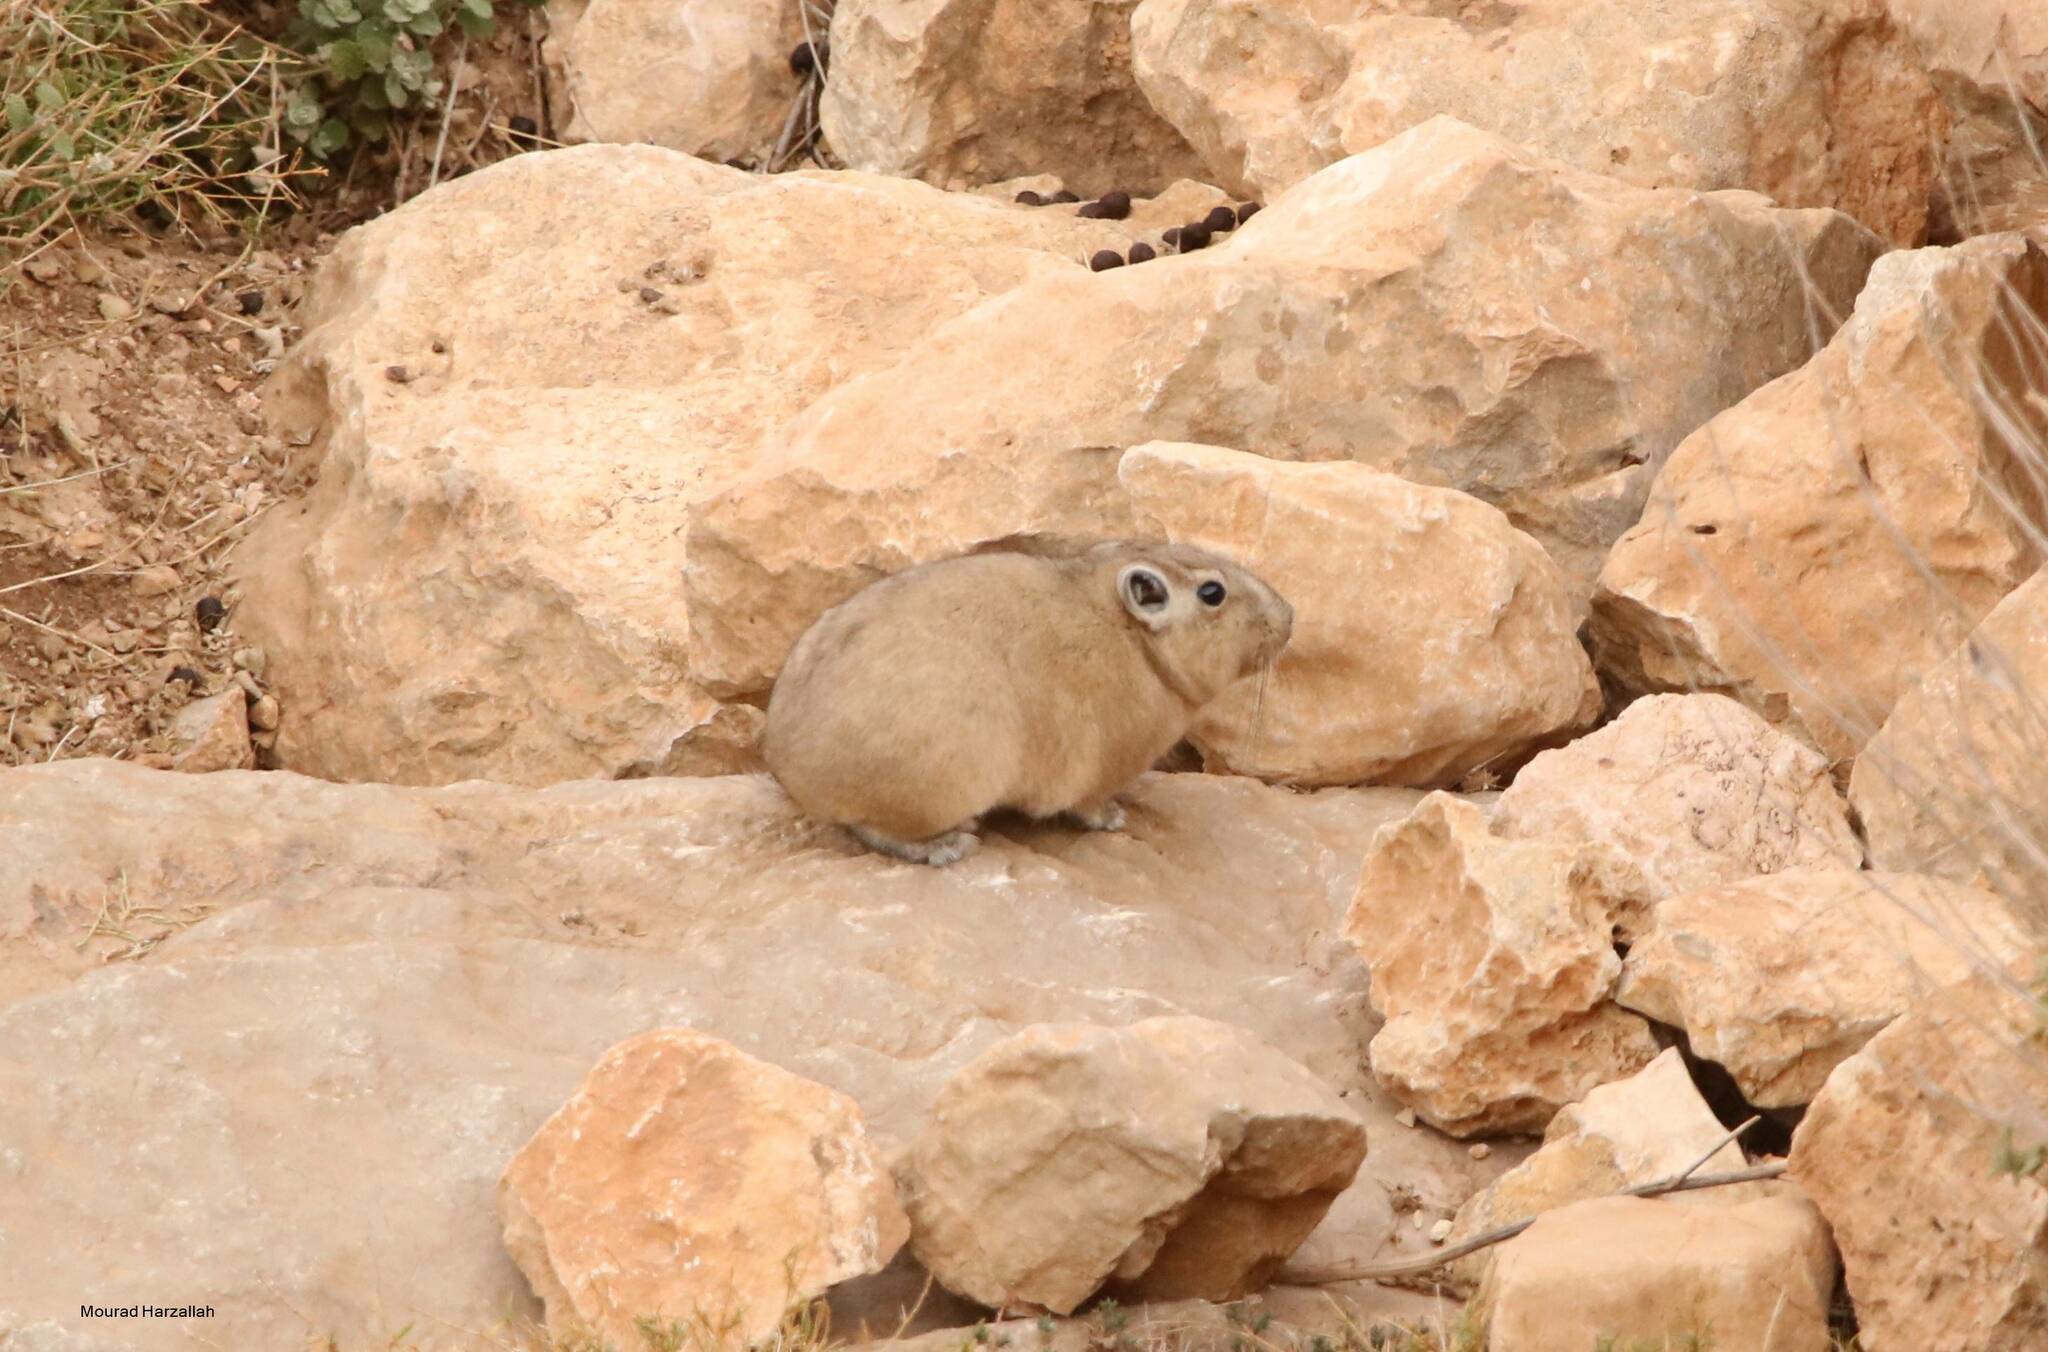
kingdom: Animalia
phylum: Chordata
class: Mammalia
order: Rodentia
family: Ctenodactylidae
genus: Ctenodactylus
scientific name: Ctenodactylus gundi
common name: Common gundi
